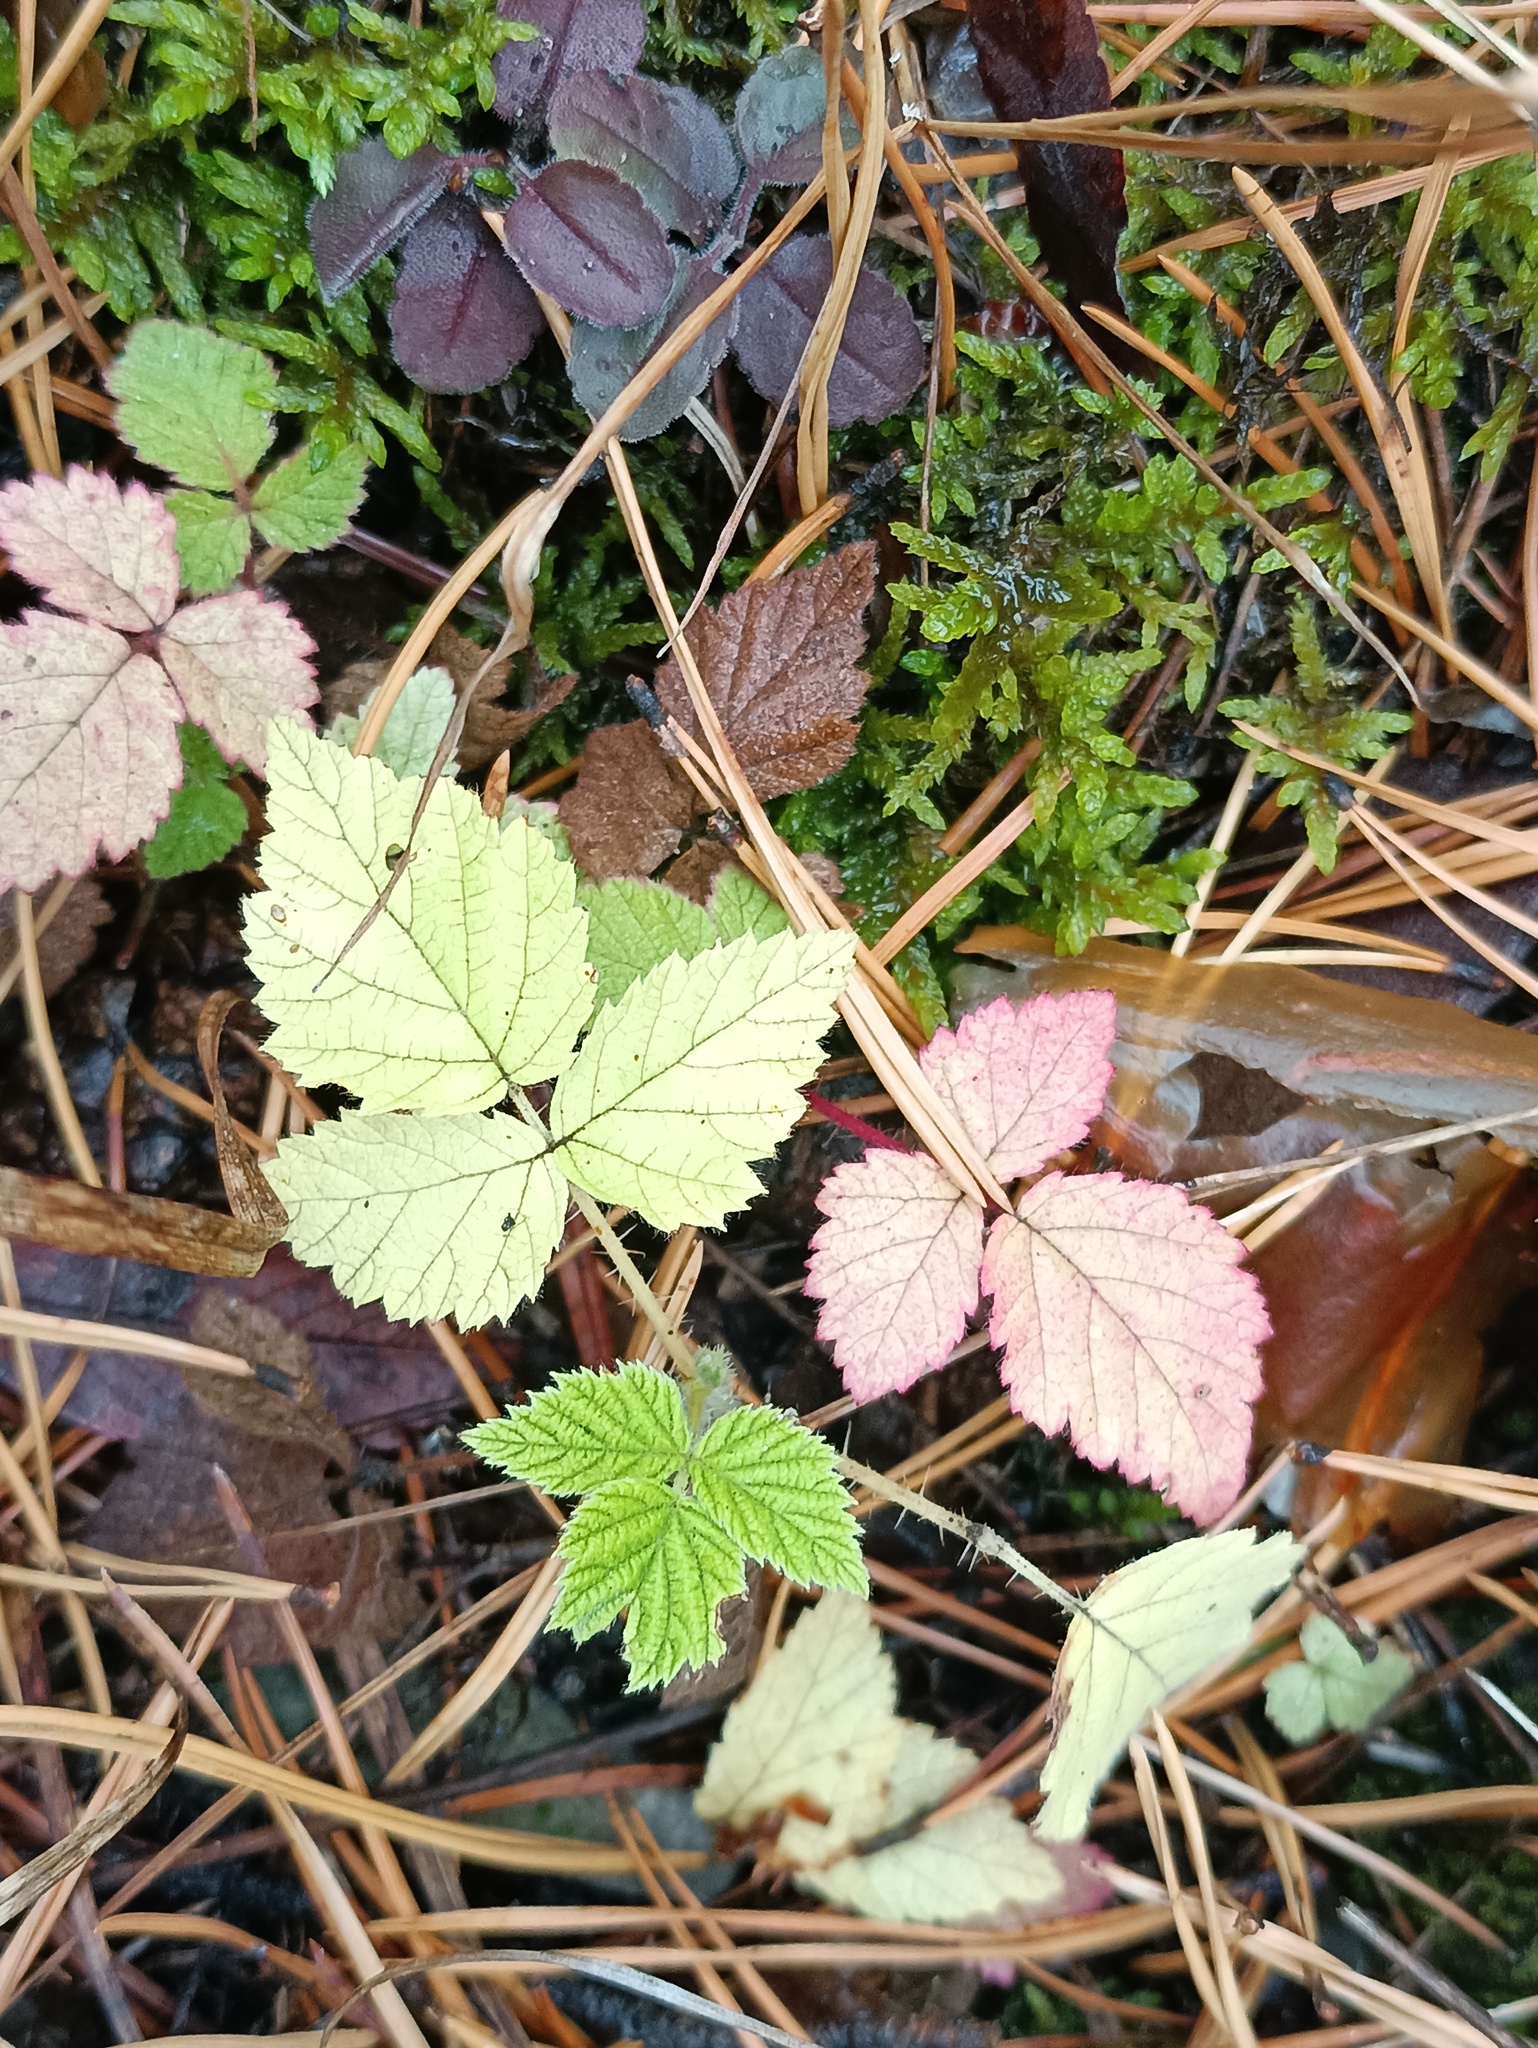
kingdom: Plantae
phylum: Tracheophyta
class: Magnoliopsida
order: Rosales
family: Rosaceae
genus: Rubus
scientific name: Rubus saxatilis
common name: Stone bramble
